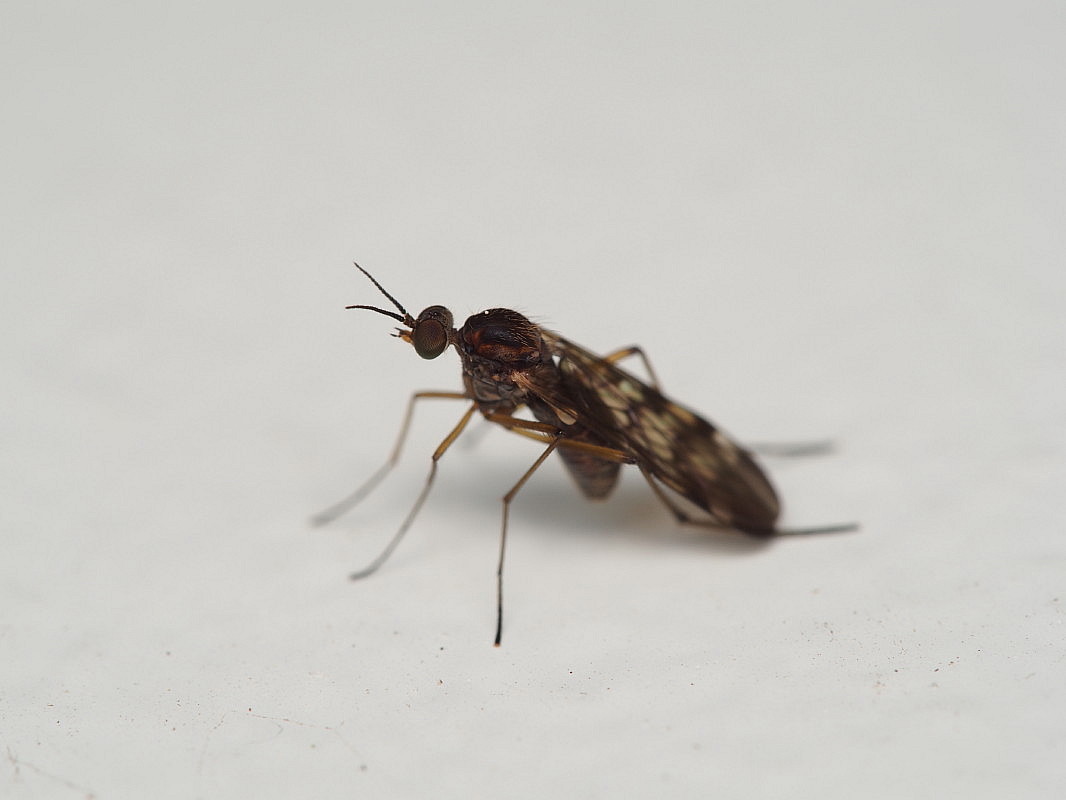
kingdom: Animalia
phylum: Arthropoda
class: Insecta
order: Diptera
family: Anisopodidae
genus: Sylvicola
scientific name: Sylvicola undulatus
